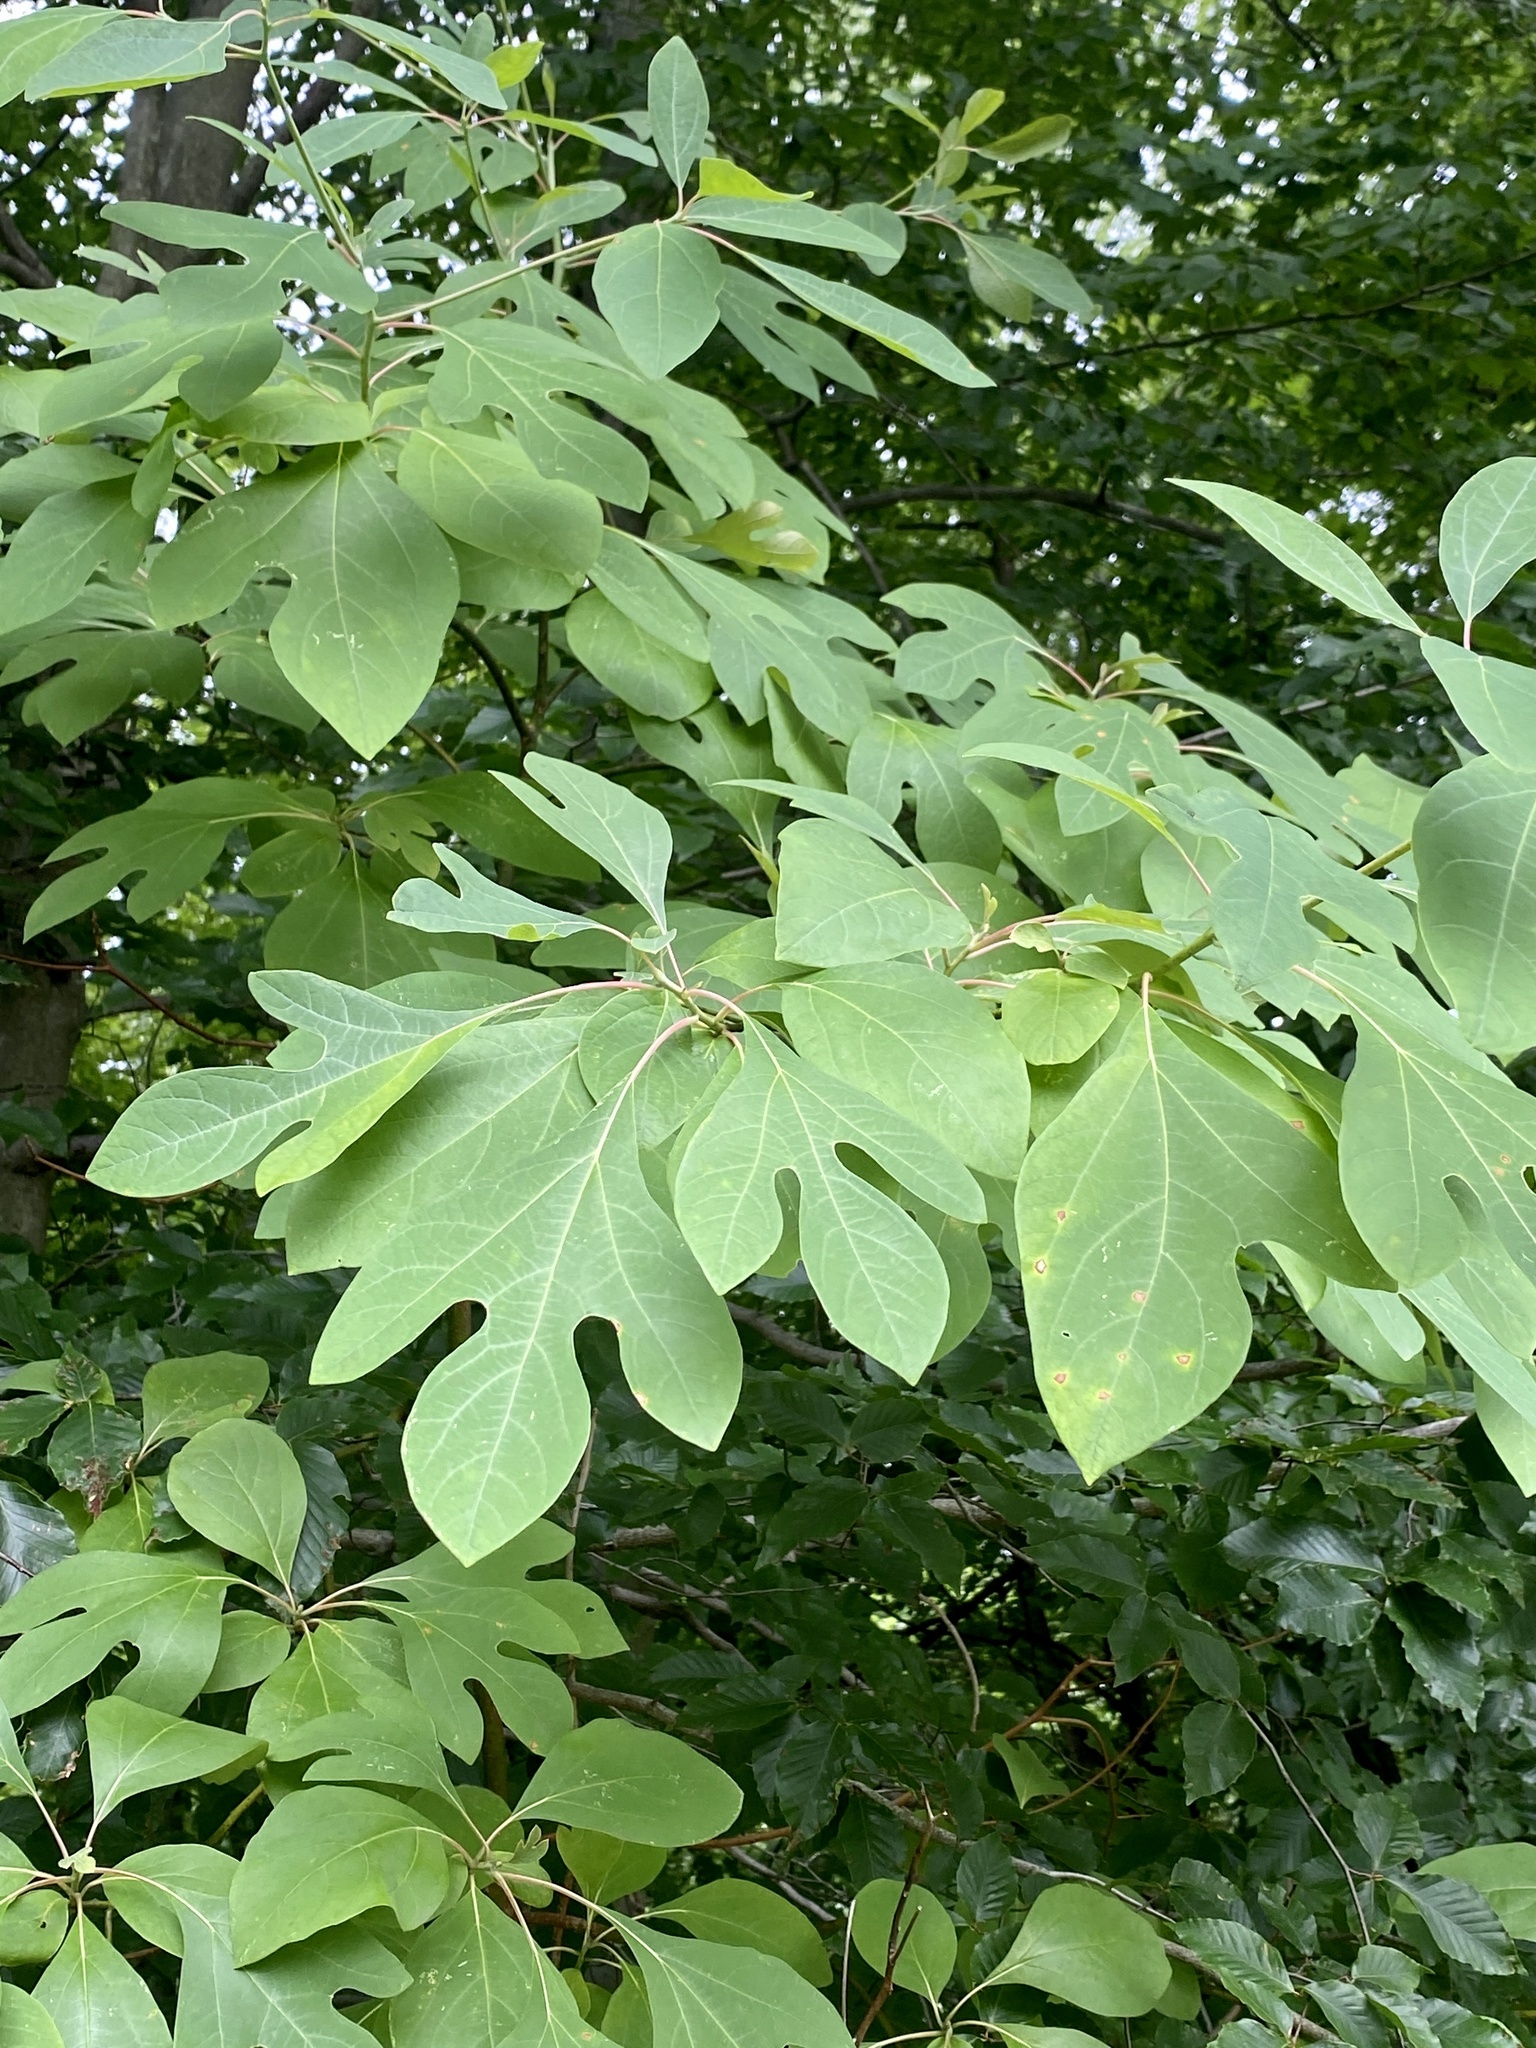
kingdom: Plantae
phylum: Tracheophyta
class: Magnoliopsida
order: Laurales
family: Lauraceae
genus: Sassafras
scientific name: Sassafras albidum
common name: Sassafras
